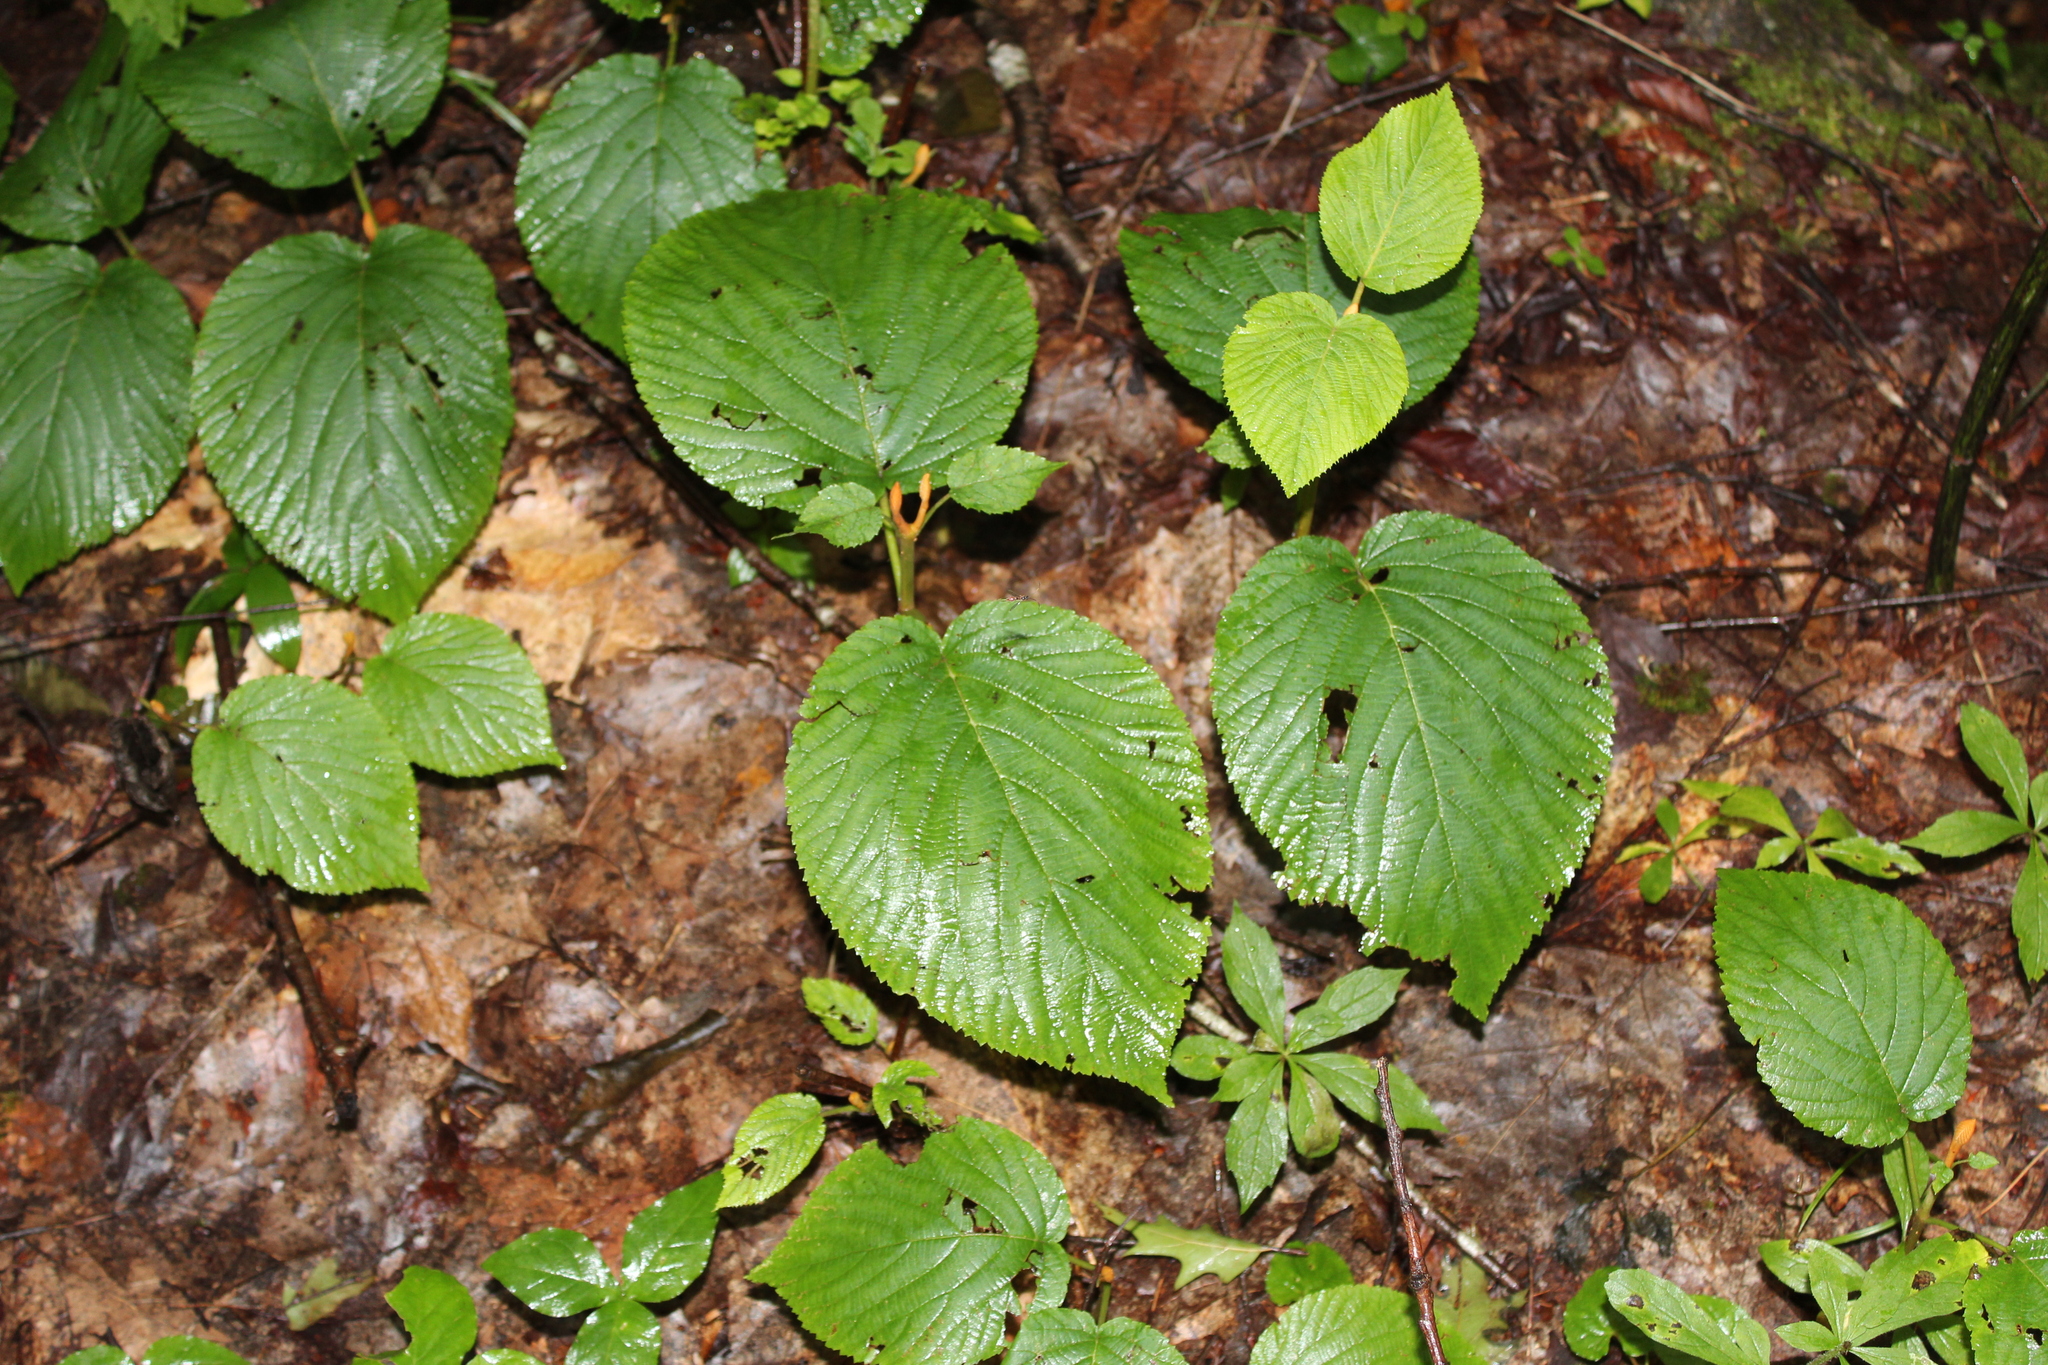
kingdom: Plantae
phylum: Tracheophyta
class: Magnoliopsida
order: Dipsacales
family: Viburnaceae
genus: Viburnum
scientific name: Viburnum lantanoides
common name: Hobblebush
